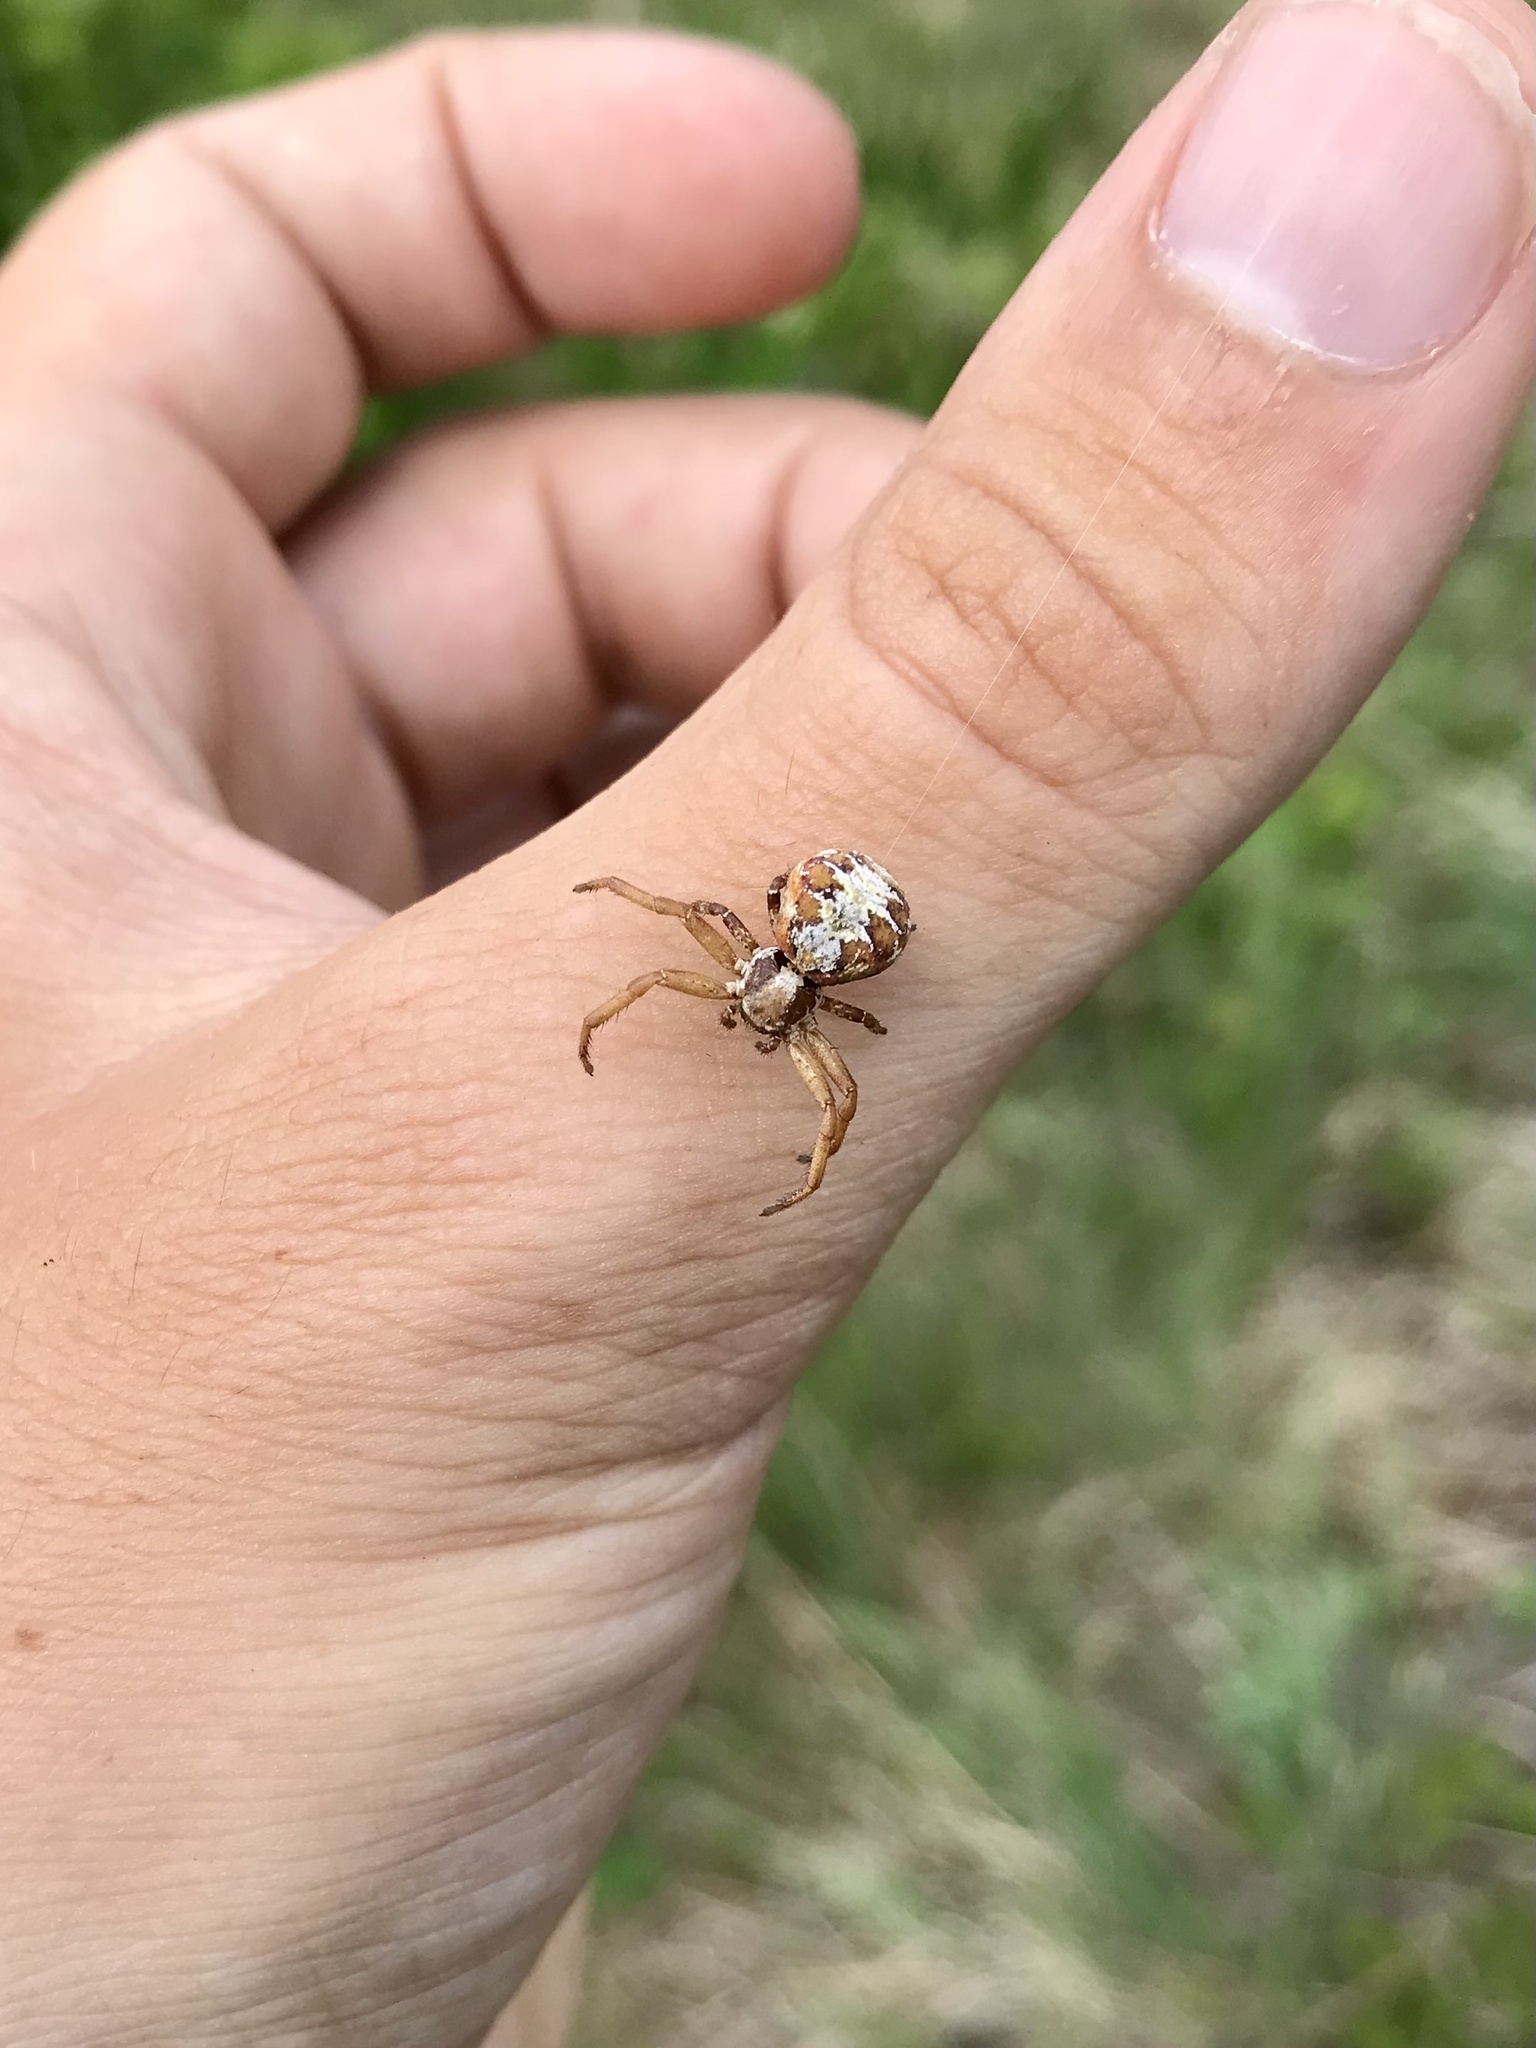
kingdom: Animalia
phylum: Arthropoda
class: Arachnida
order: Araneae
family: Thomisidae
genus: Xysticus
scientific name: Xysticus punctatus
